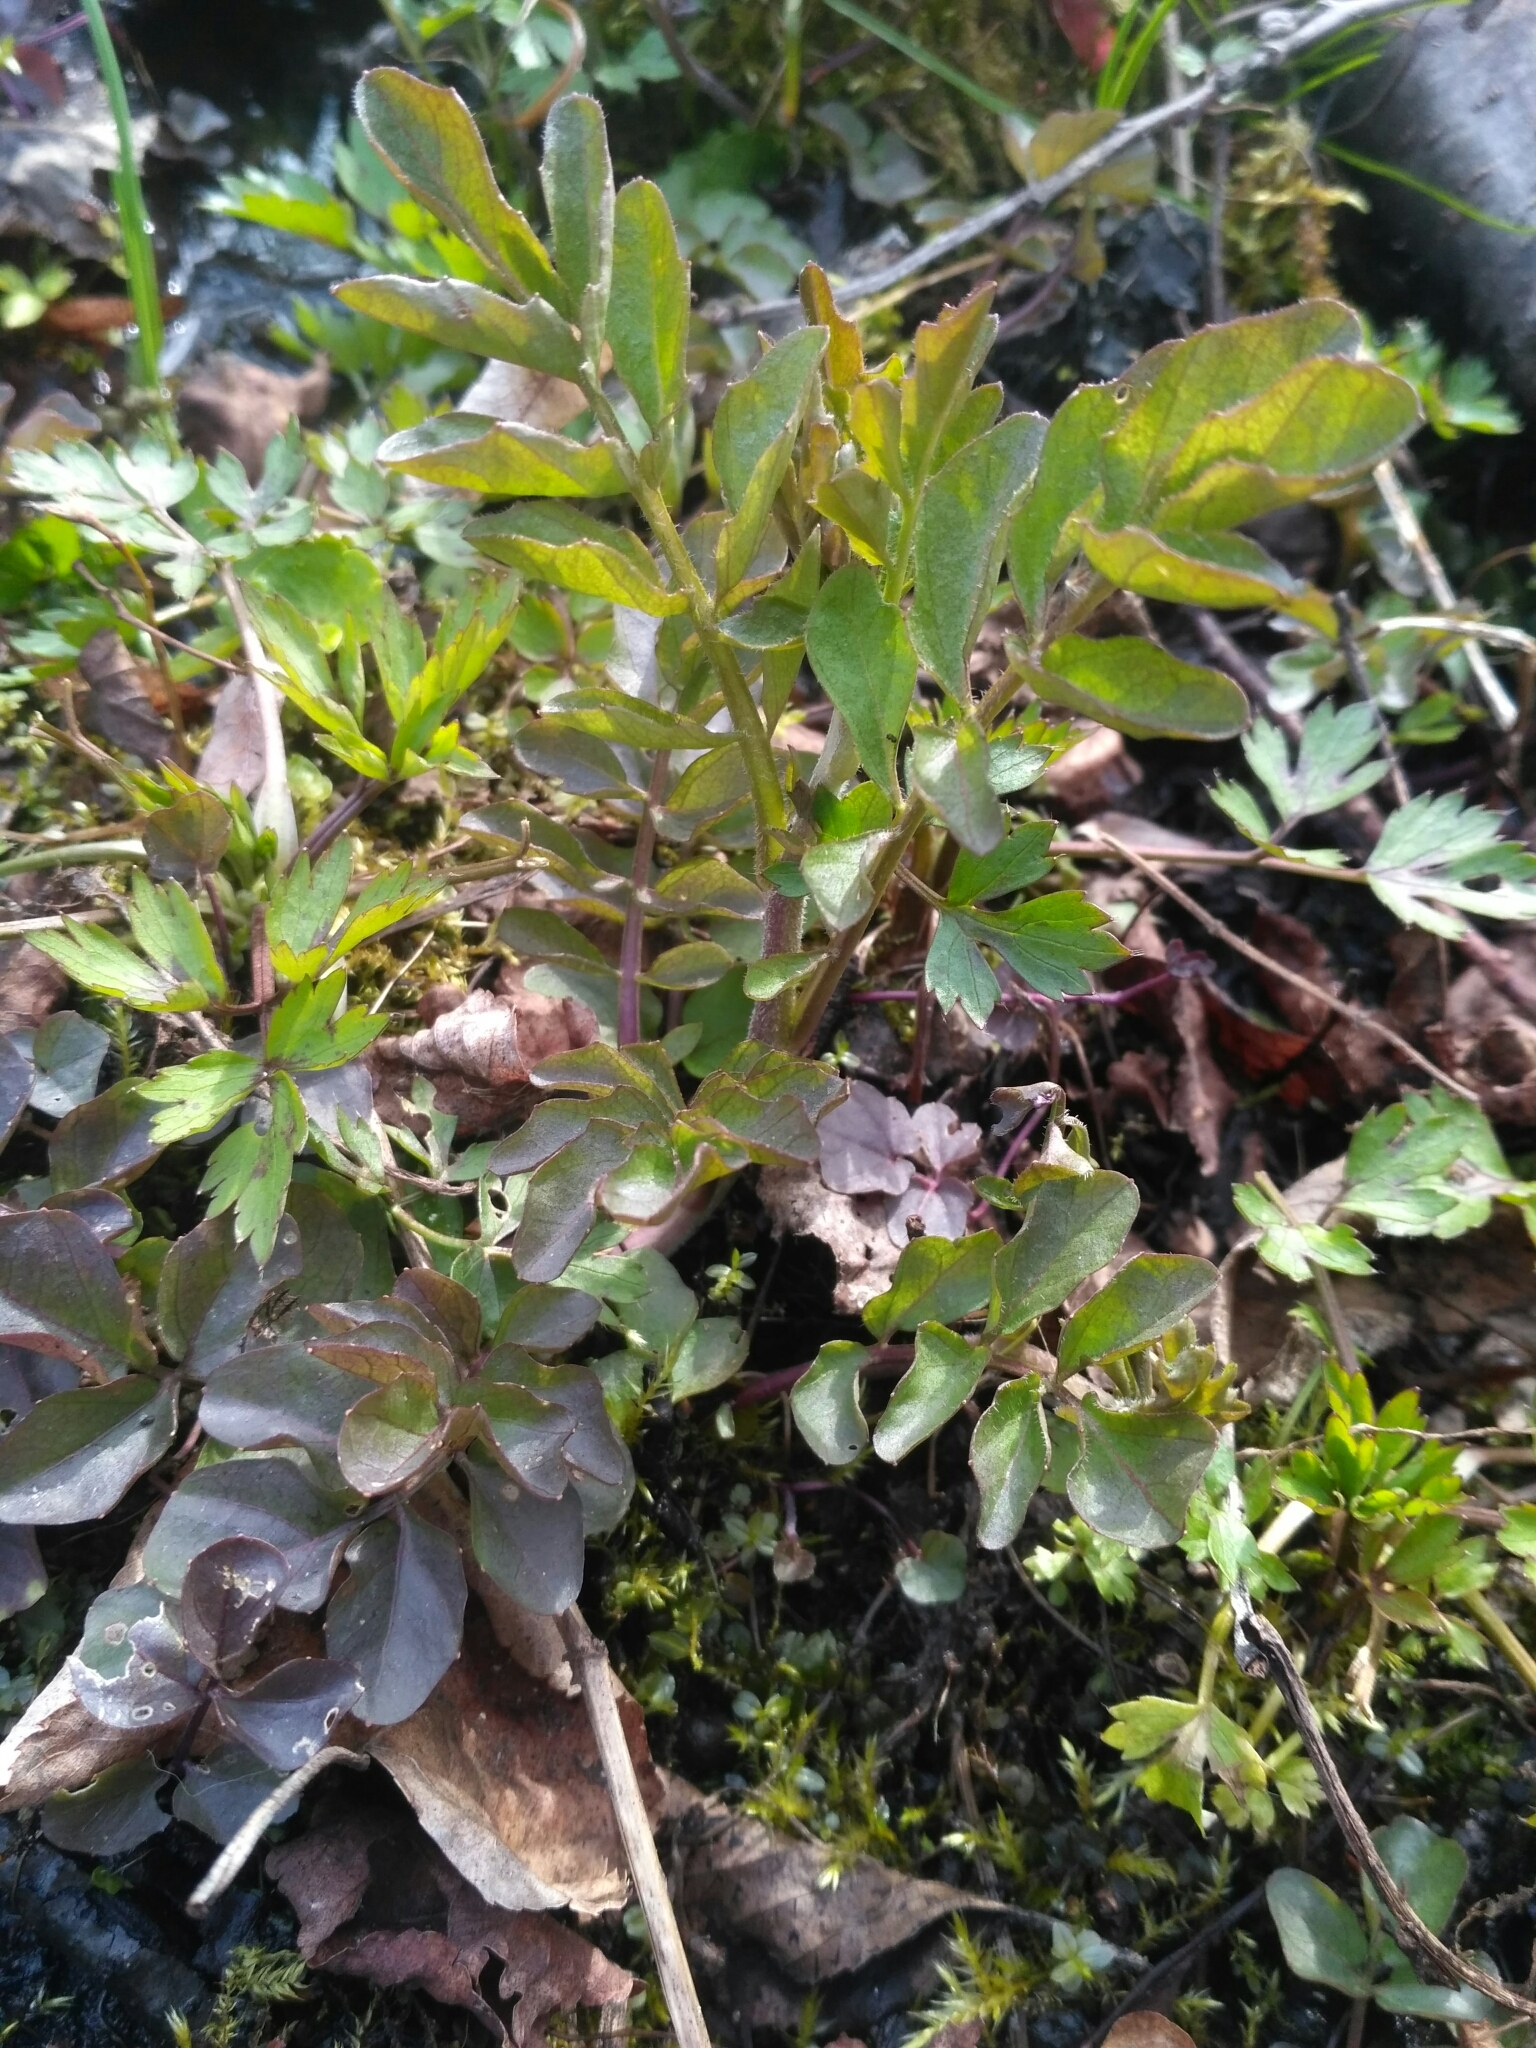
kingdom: Plantae
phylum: Tracheophyta
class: Magnoliopsida
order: Brassicales
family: Brassicaceae
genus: Cardamine
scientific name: Cardamine amara
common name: Large bitter-cress
